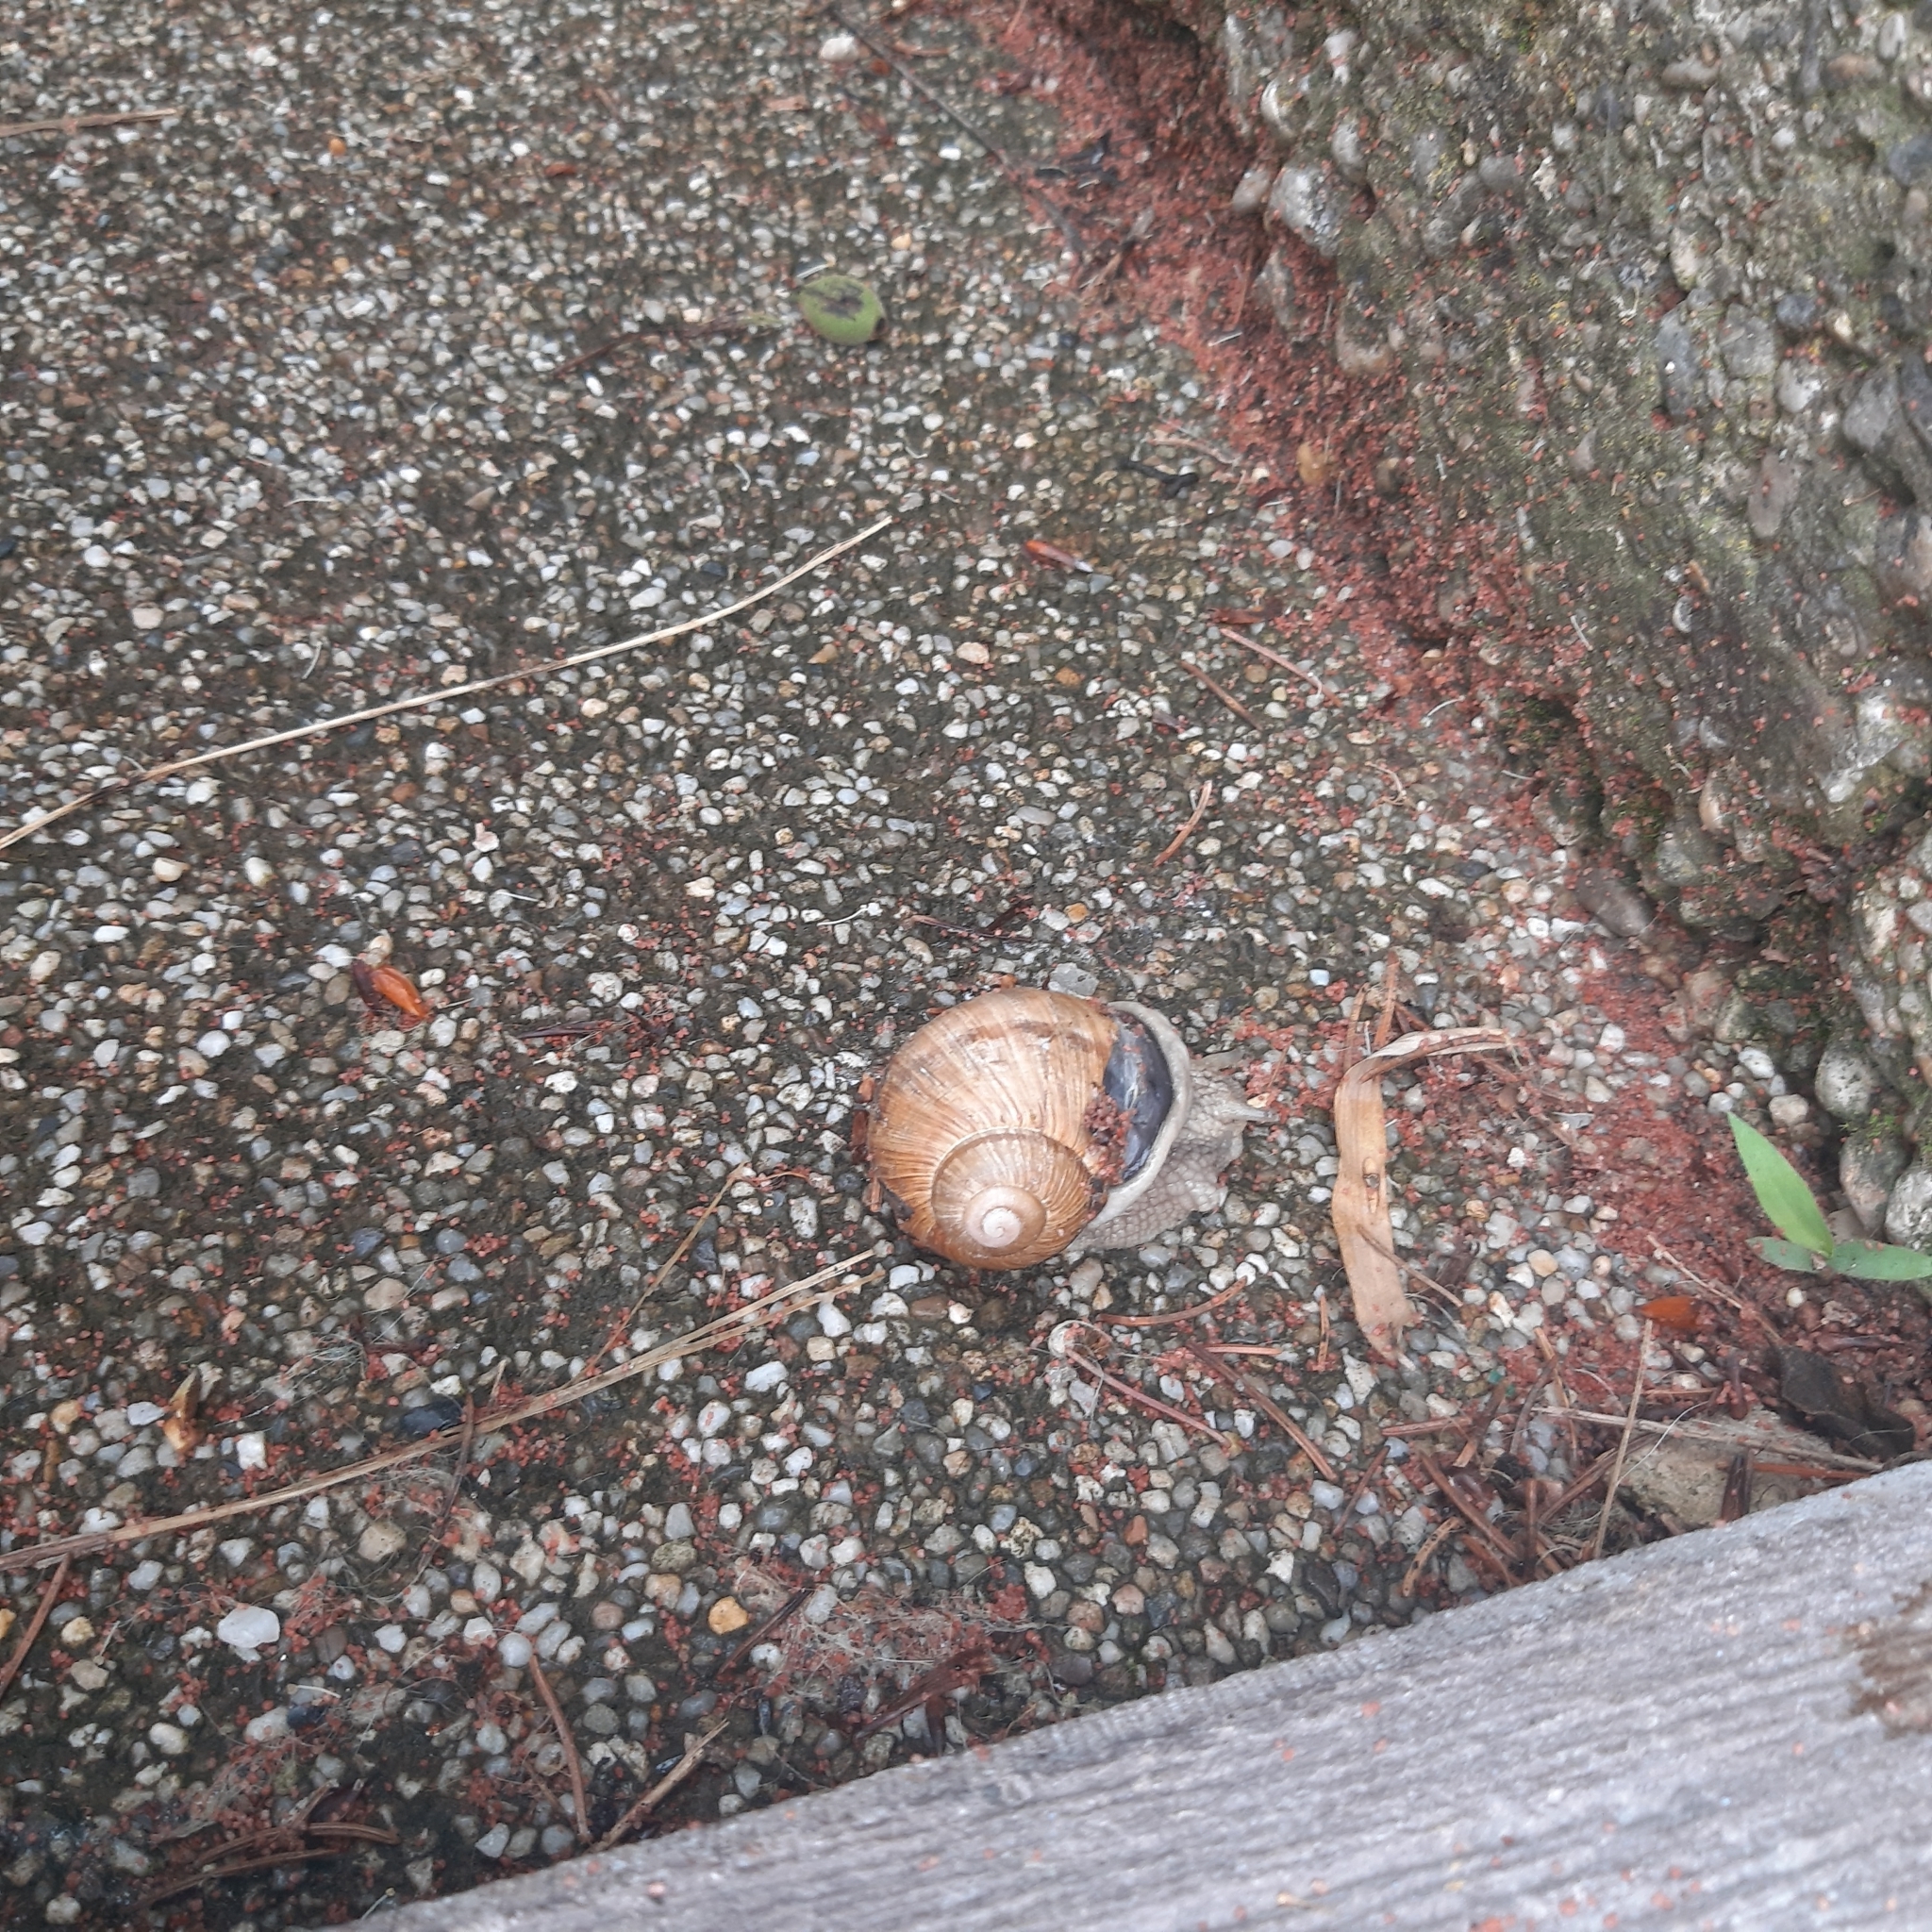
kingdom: Animalia
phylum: Mollusca
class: Gastropoda
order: Stylommatophora
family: Helicidae
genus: Helix
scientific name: Helix pomatia
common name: Roman snail
